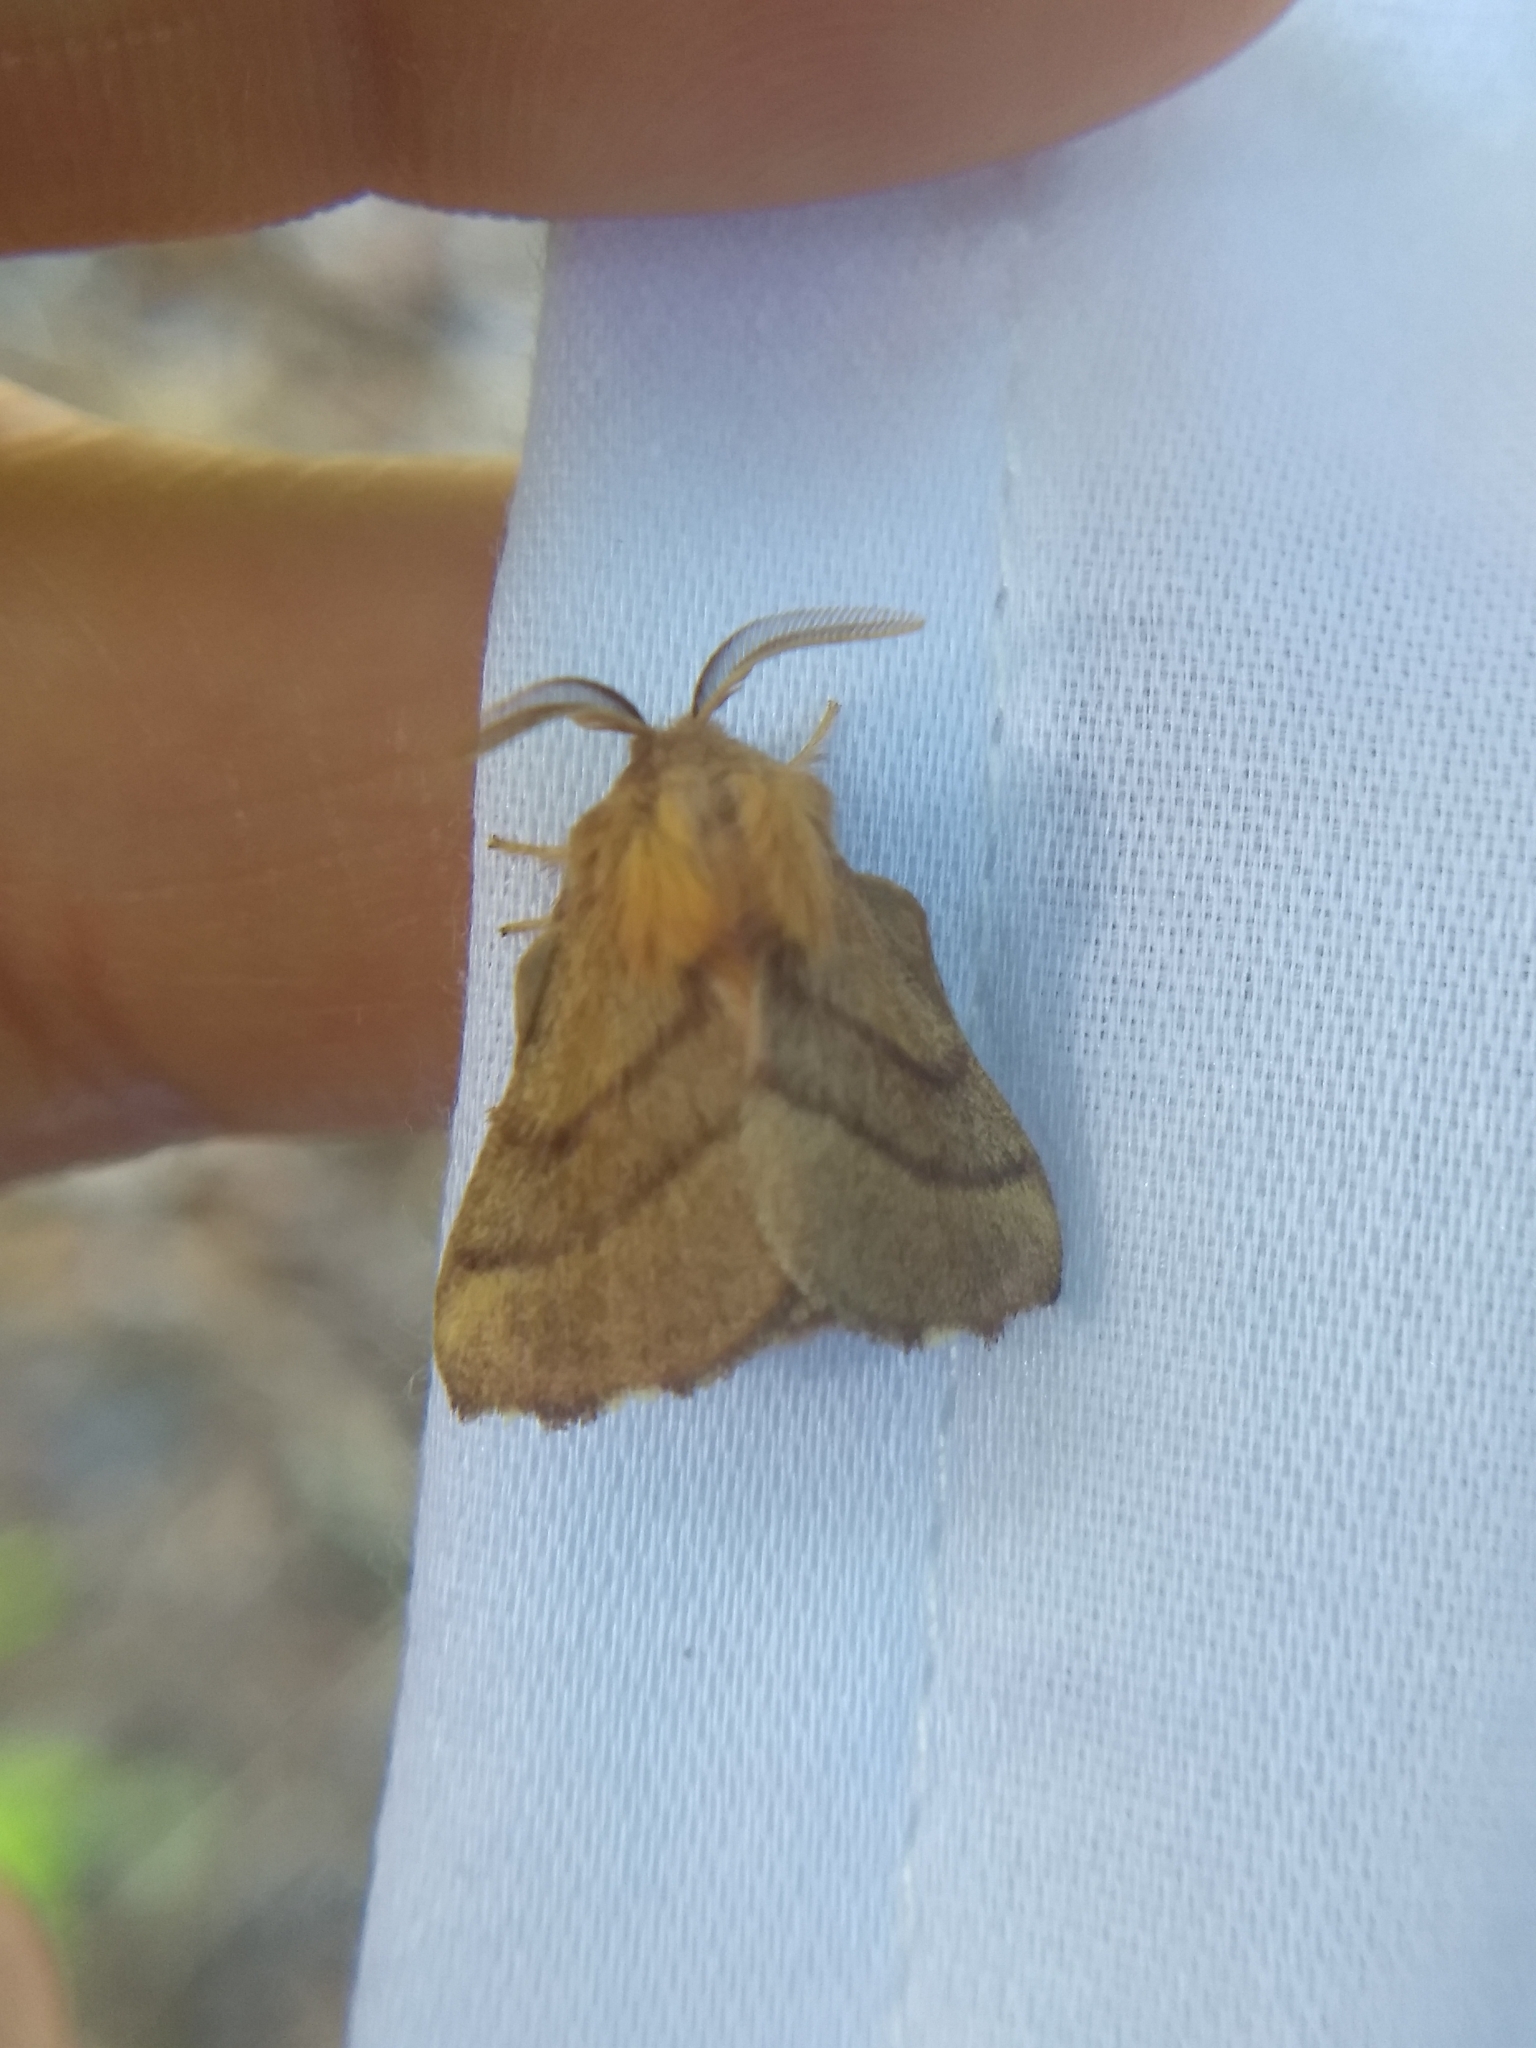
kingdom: Animalia
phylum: Arthropoda
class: Insecta
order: Lepidoptera
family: Lasiocampidae
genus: Malacosoma
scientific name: Malacosoma disstria
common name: Forest tent caterpillar
